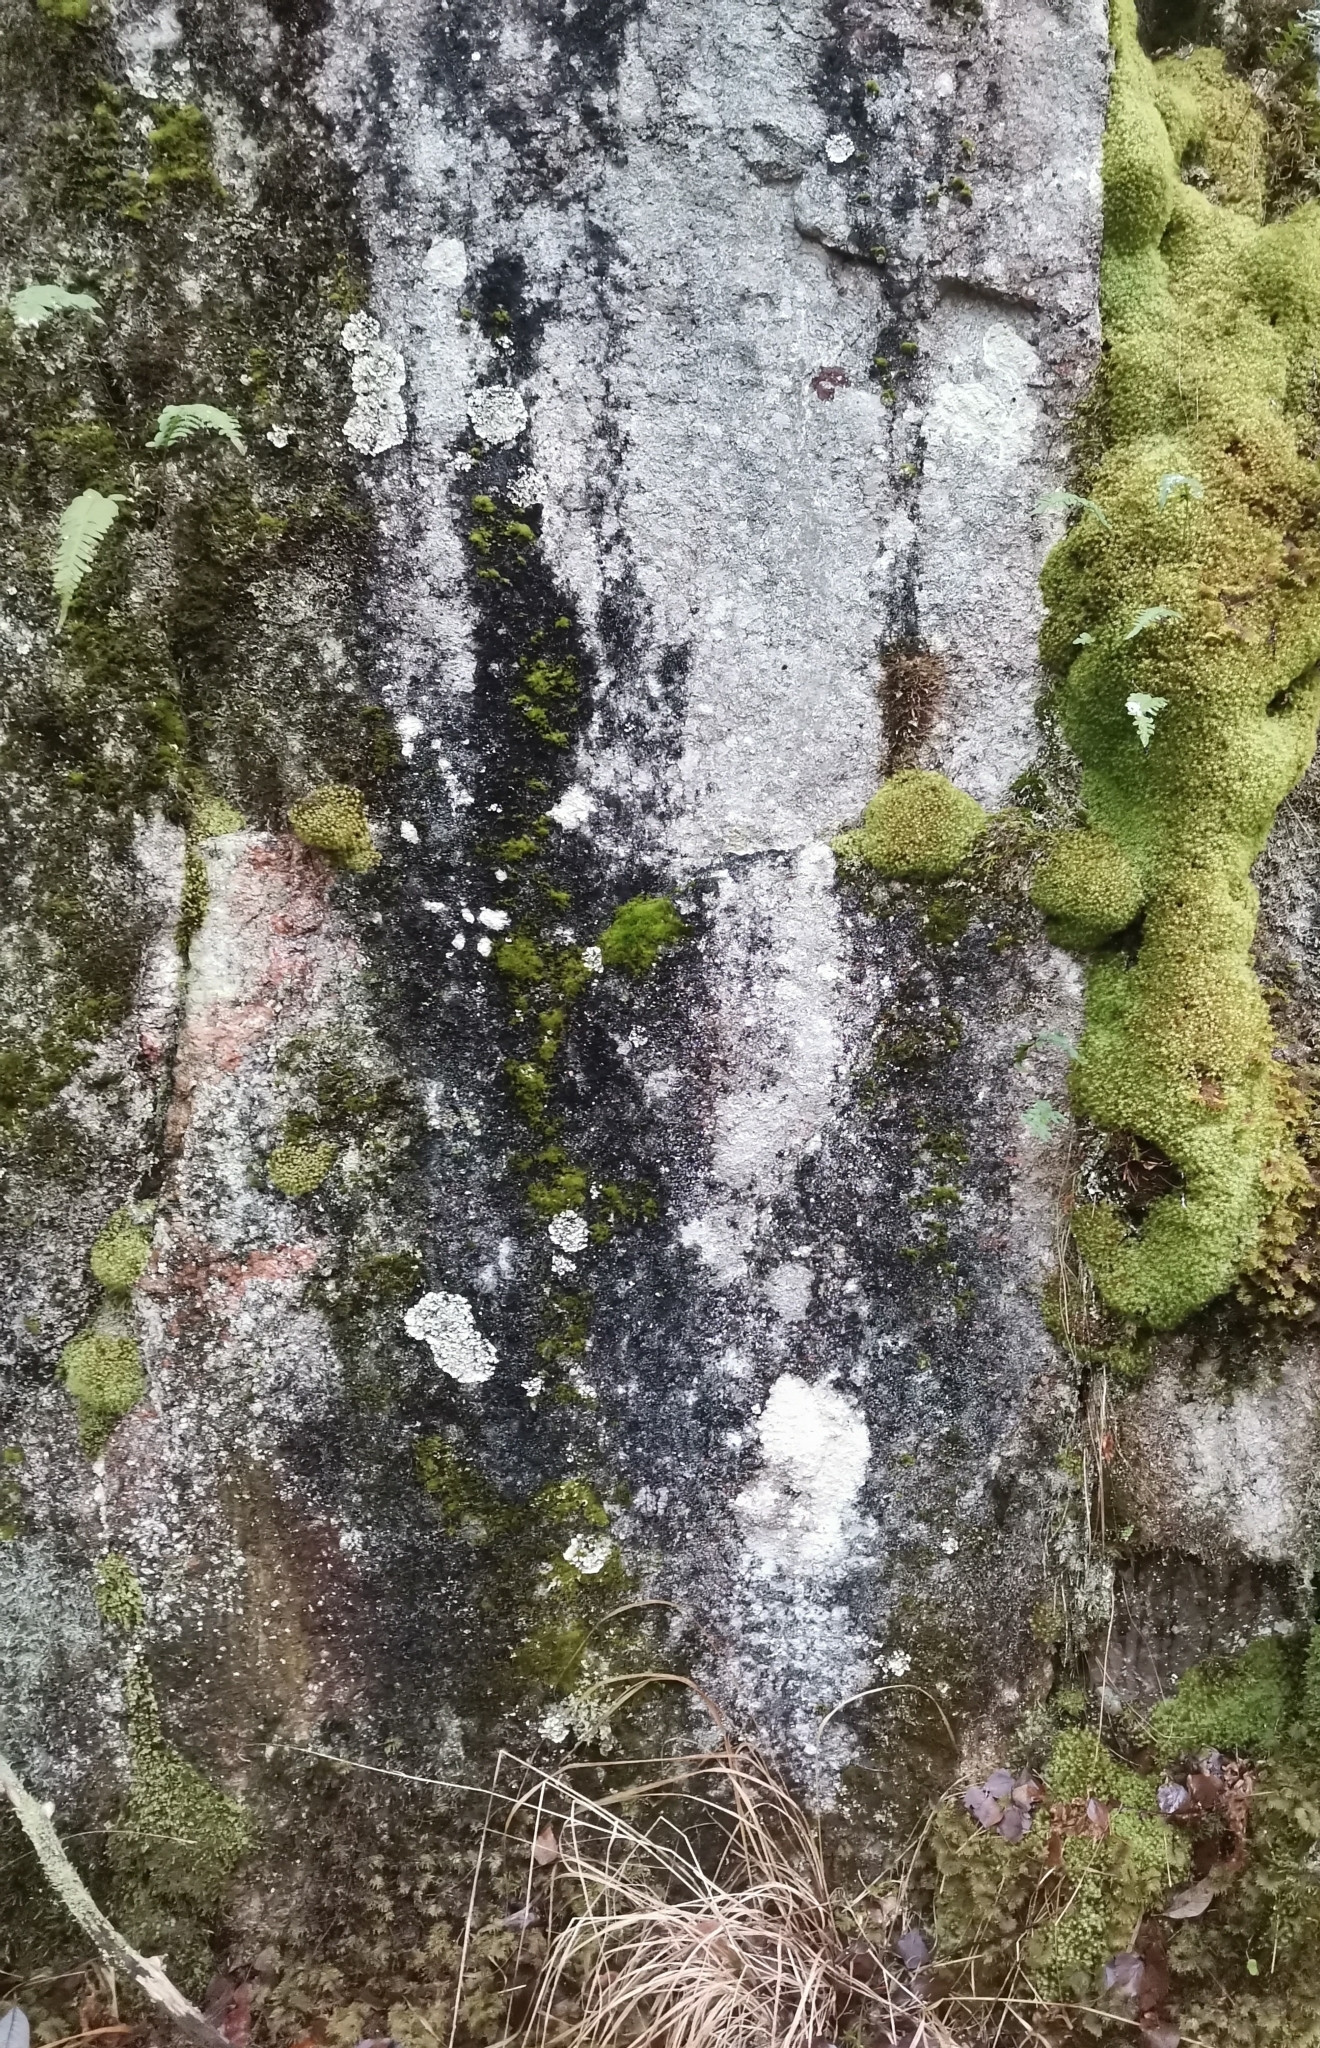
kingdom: Fungi
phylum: Ascomycota
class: Lecanoromycetes
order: Ostropales
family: Graphidaceae
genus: Diploschistes
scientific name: Diploschistes scruposus
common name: Crater lichen
